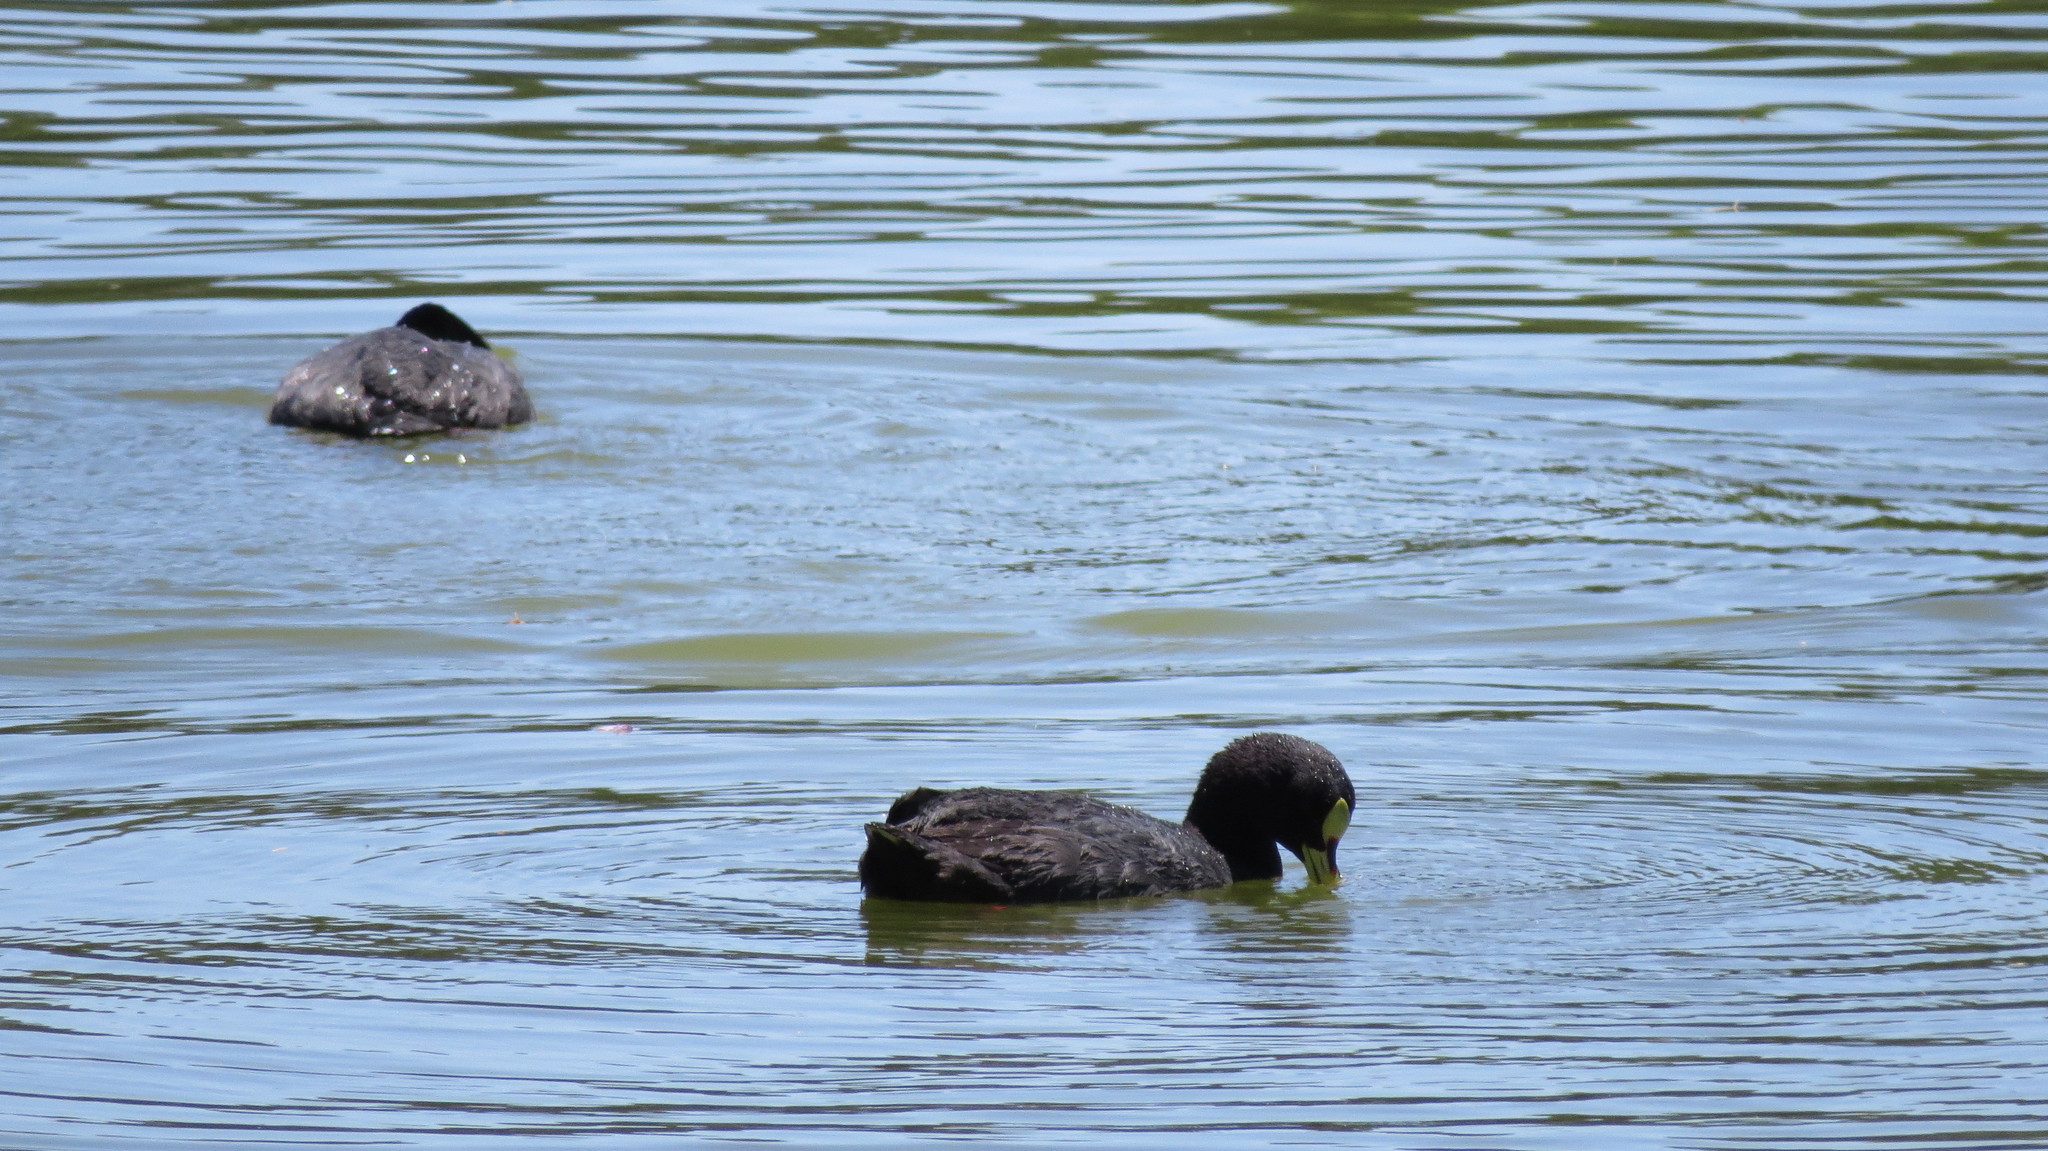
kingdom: Animalia
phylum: Chordata
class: Aves
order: Gruiformes
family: Rallidae
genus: Fulica
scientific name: Fulica armillata
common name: Red-gartered coot
